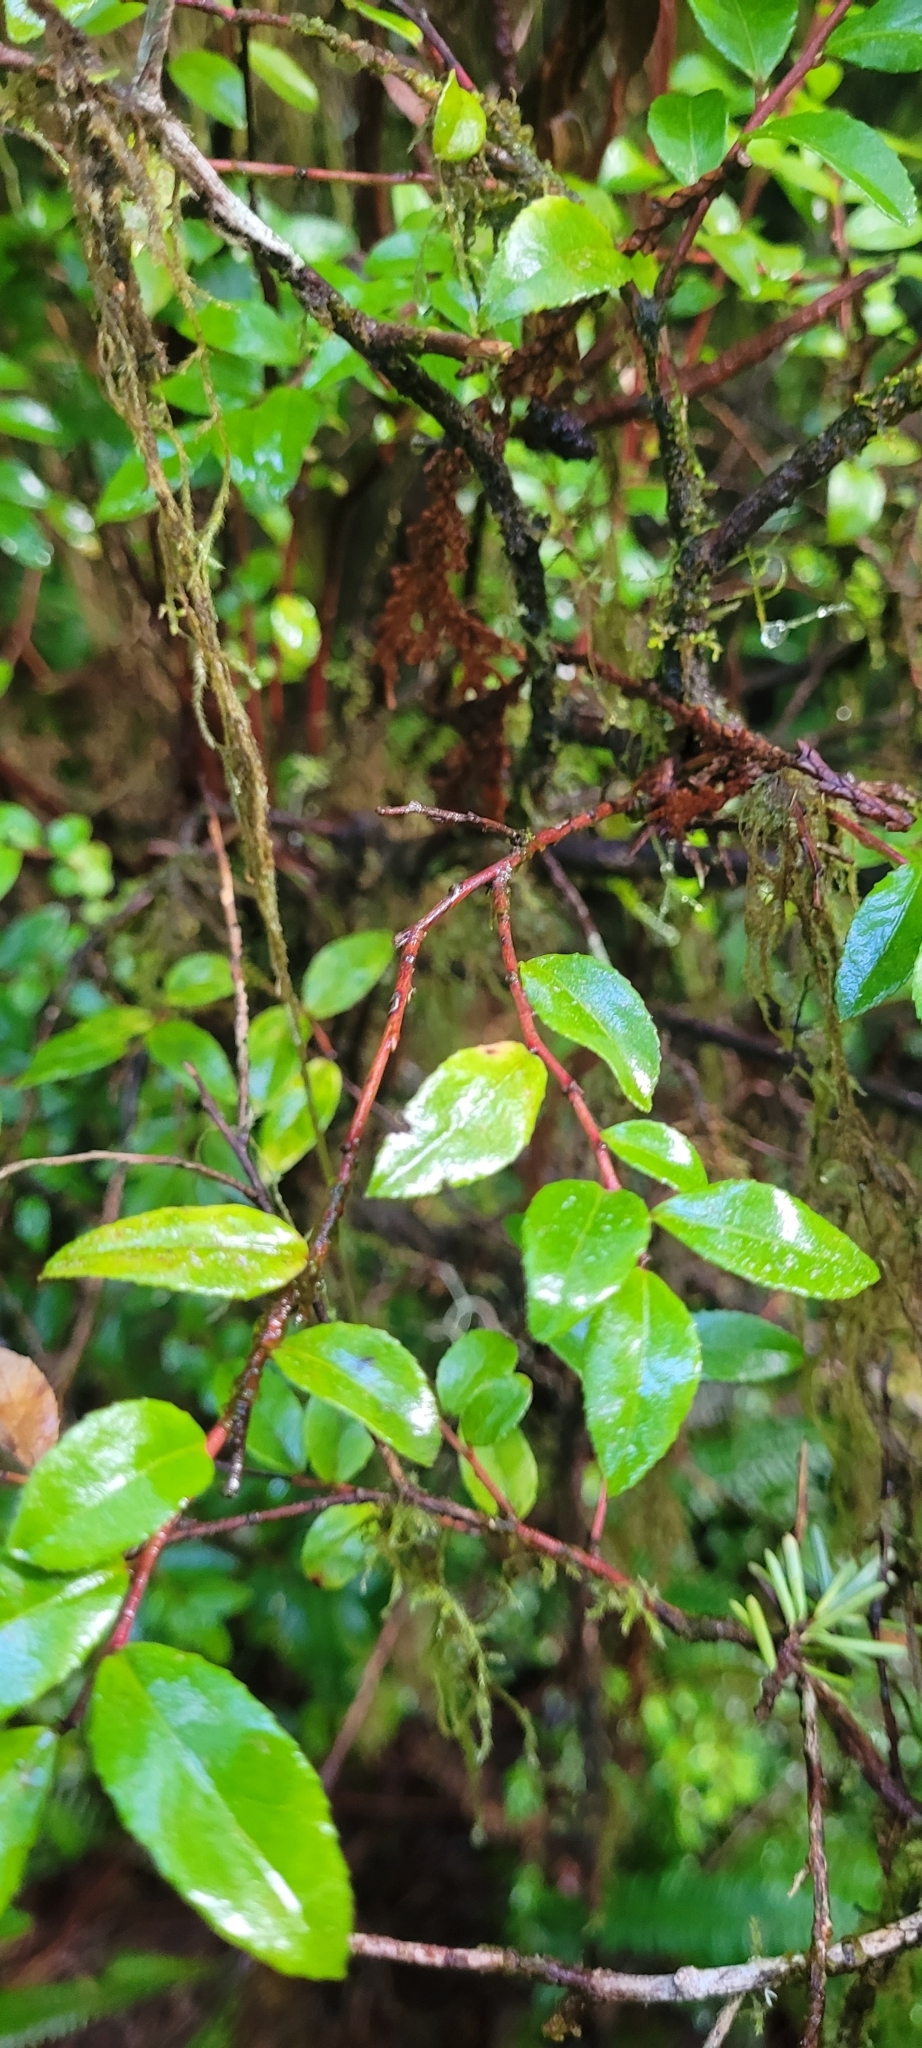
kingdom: Plantae
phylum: Tracheophyta
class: Magnoliopsida
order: Ericales
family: Ericaceae
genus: Vaccinium
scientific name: Vaccinium ovatum
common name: California-huckleberry
